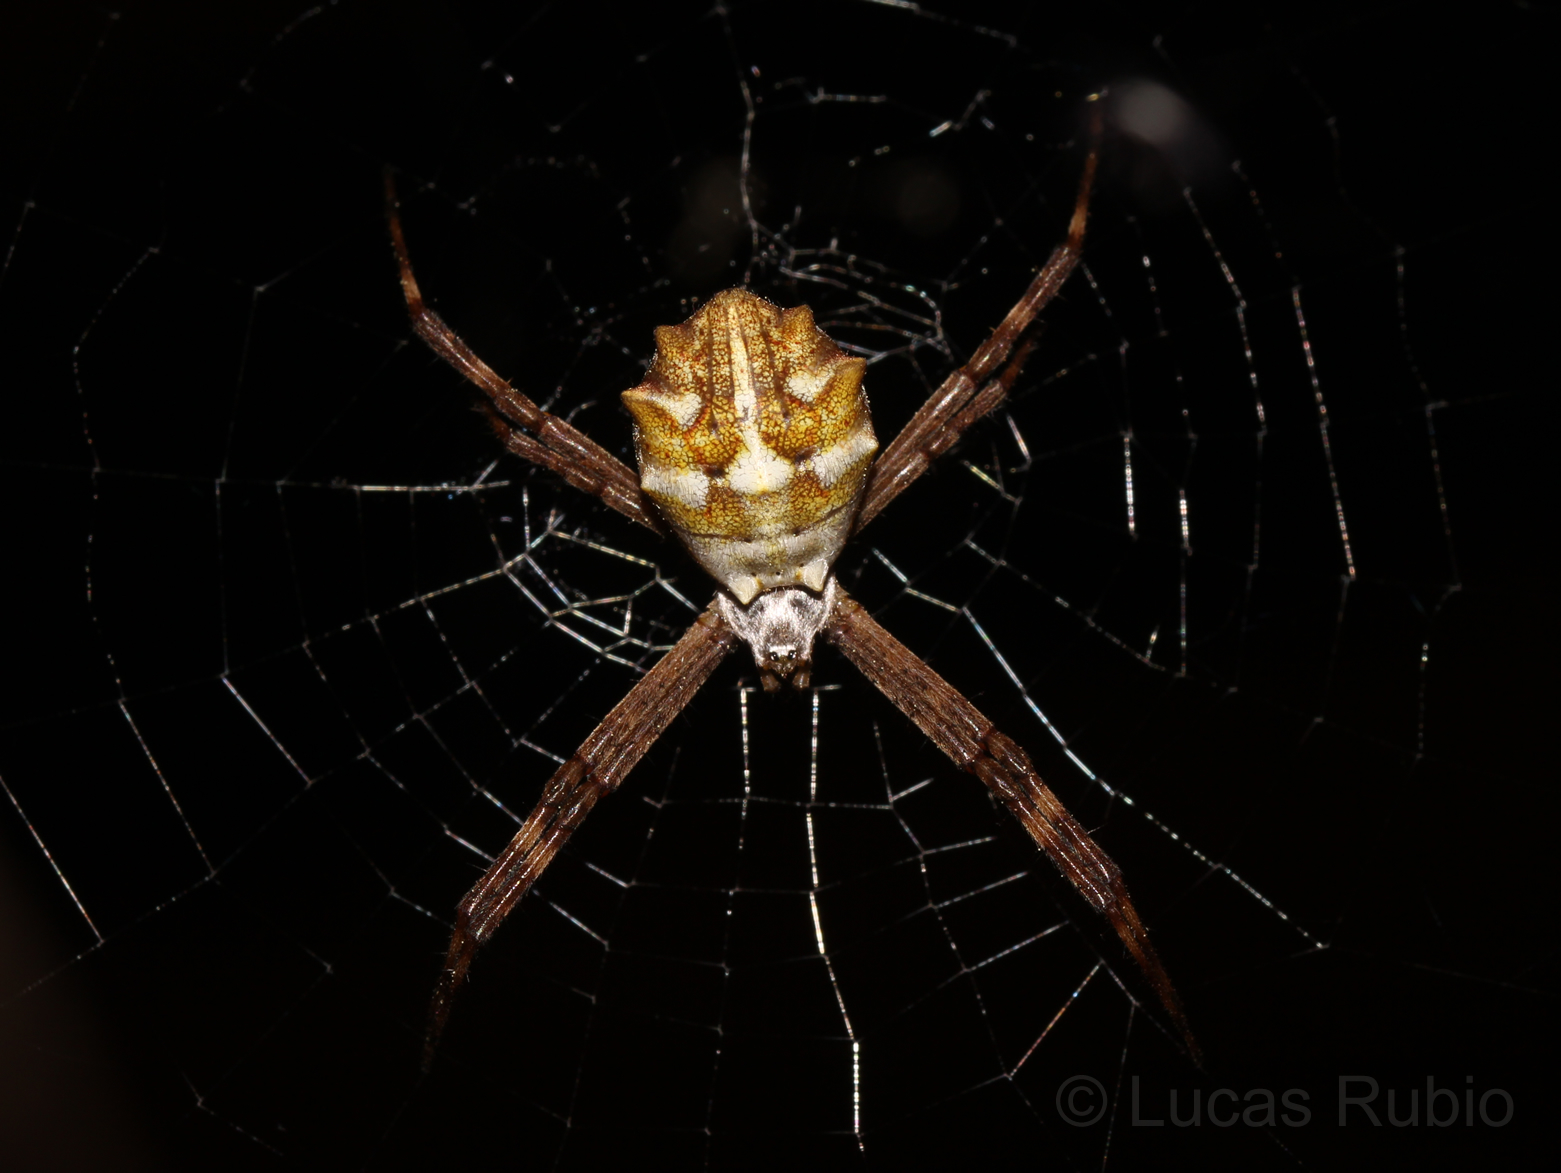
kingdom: Animalia
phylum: Arthropoda
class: Arachnida
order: Araneae
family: Araneidae
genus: Argiope
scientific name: Argiope argentata
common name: Orb weavers
